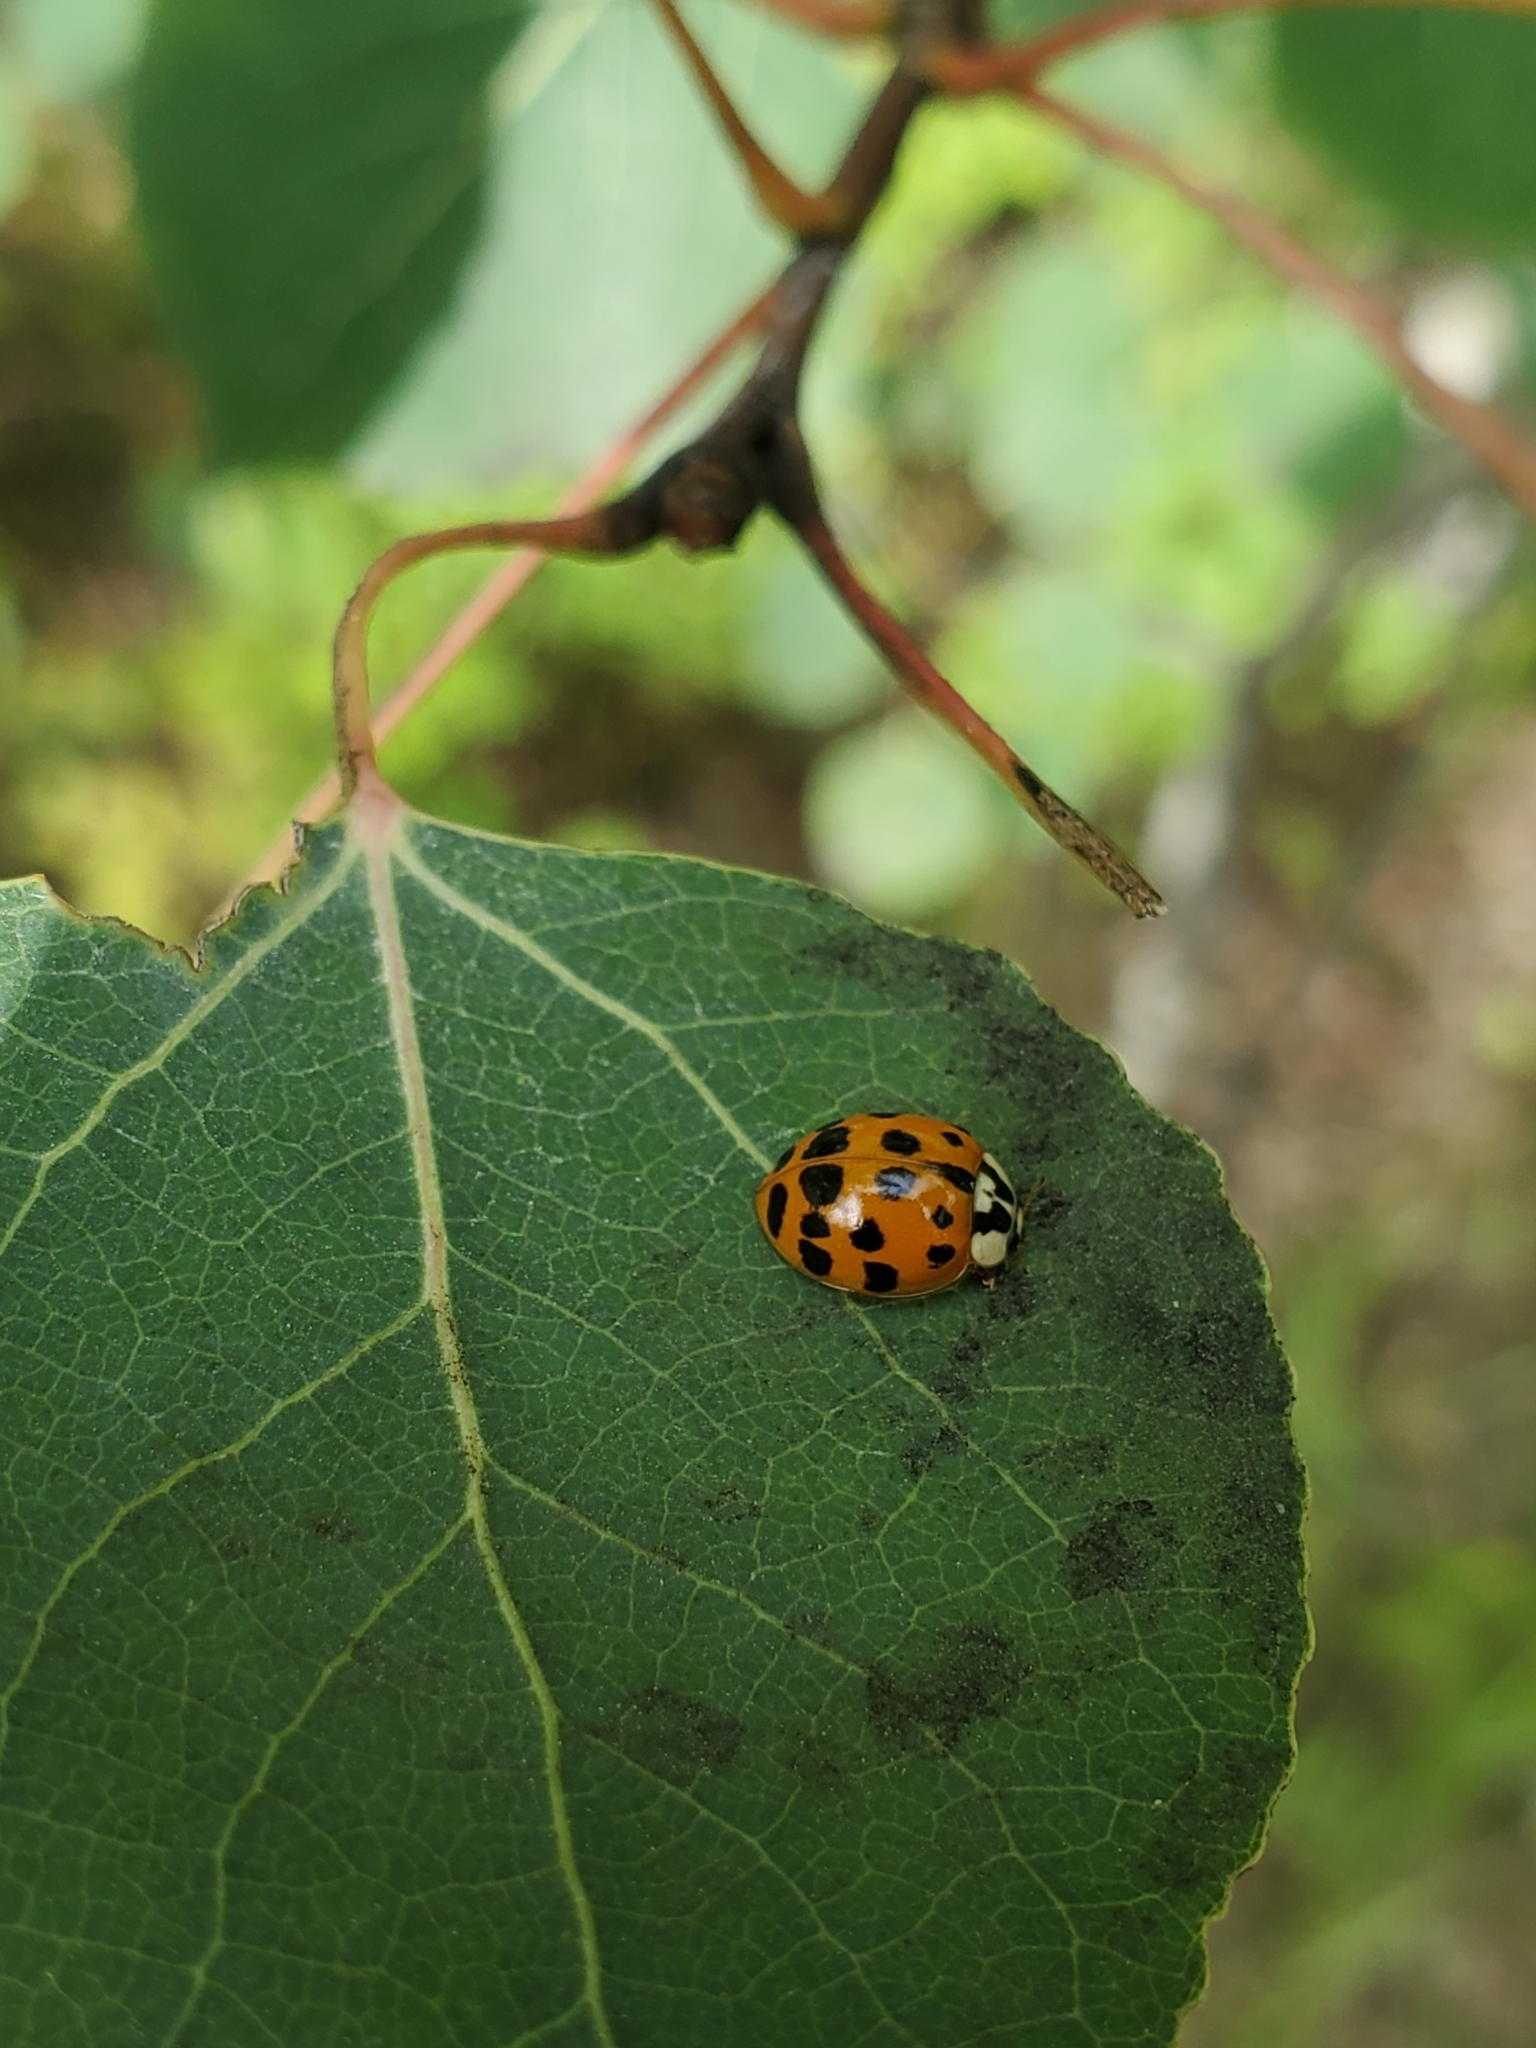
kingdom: Animalia
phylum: Arthropoda
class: Insecta
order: Coleoptera
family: Coccinellidae
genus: Harmonia
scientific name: Harmonia axyridis
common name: Harlequin ladybird
